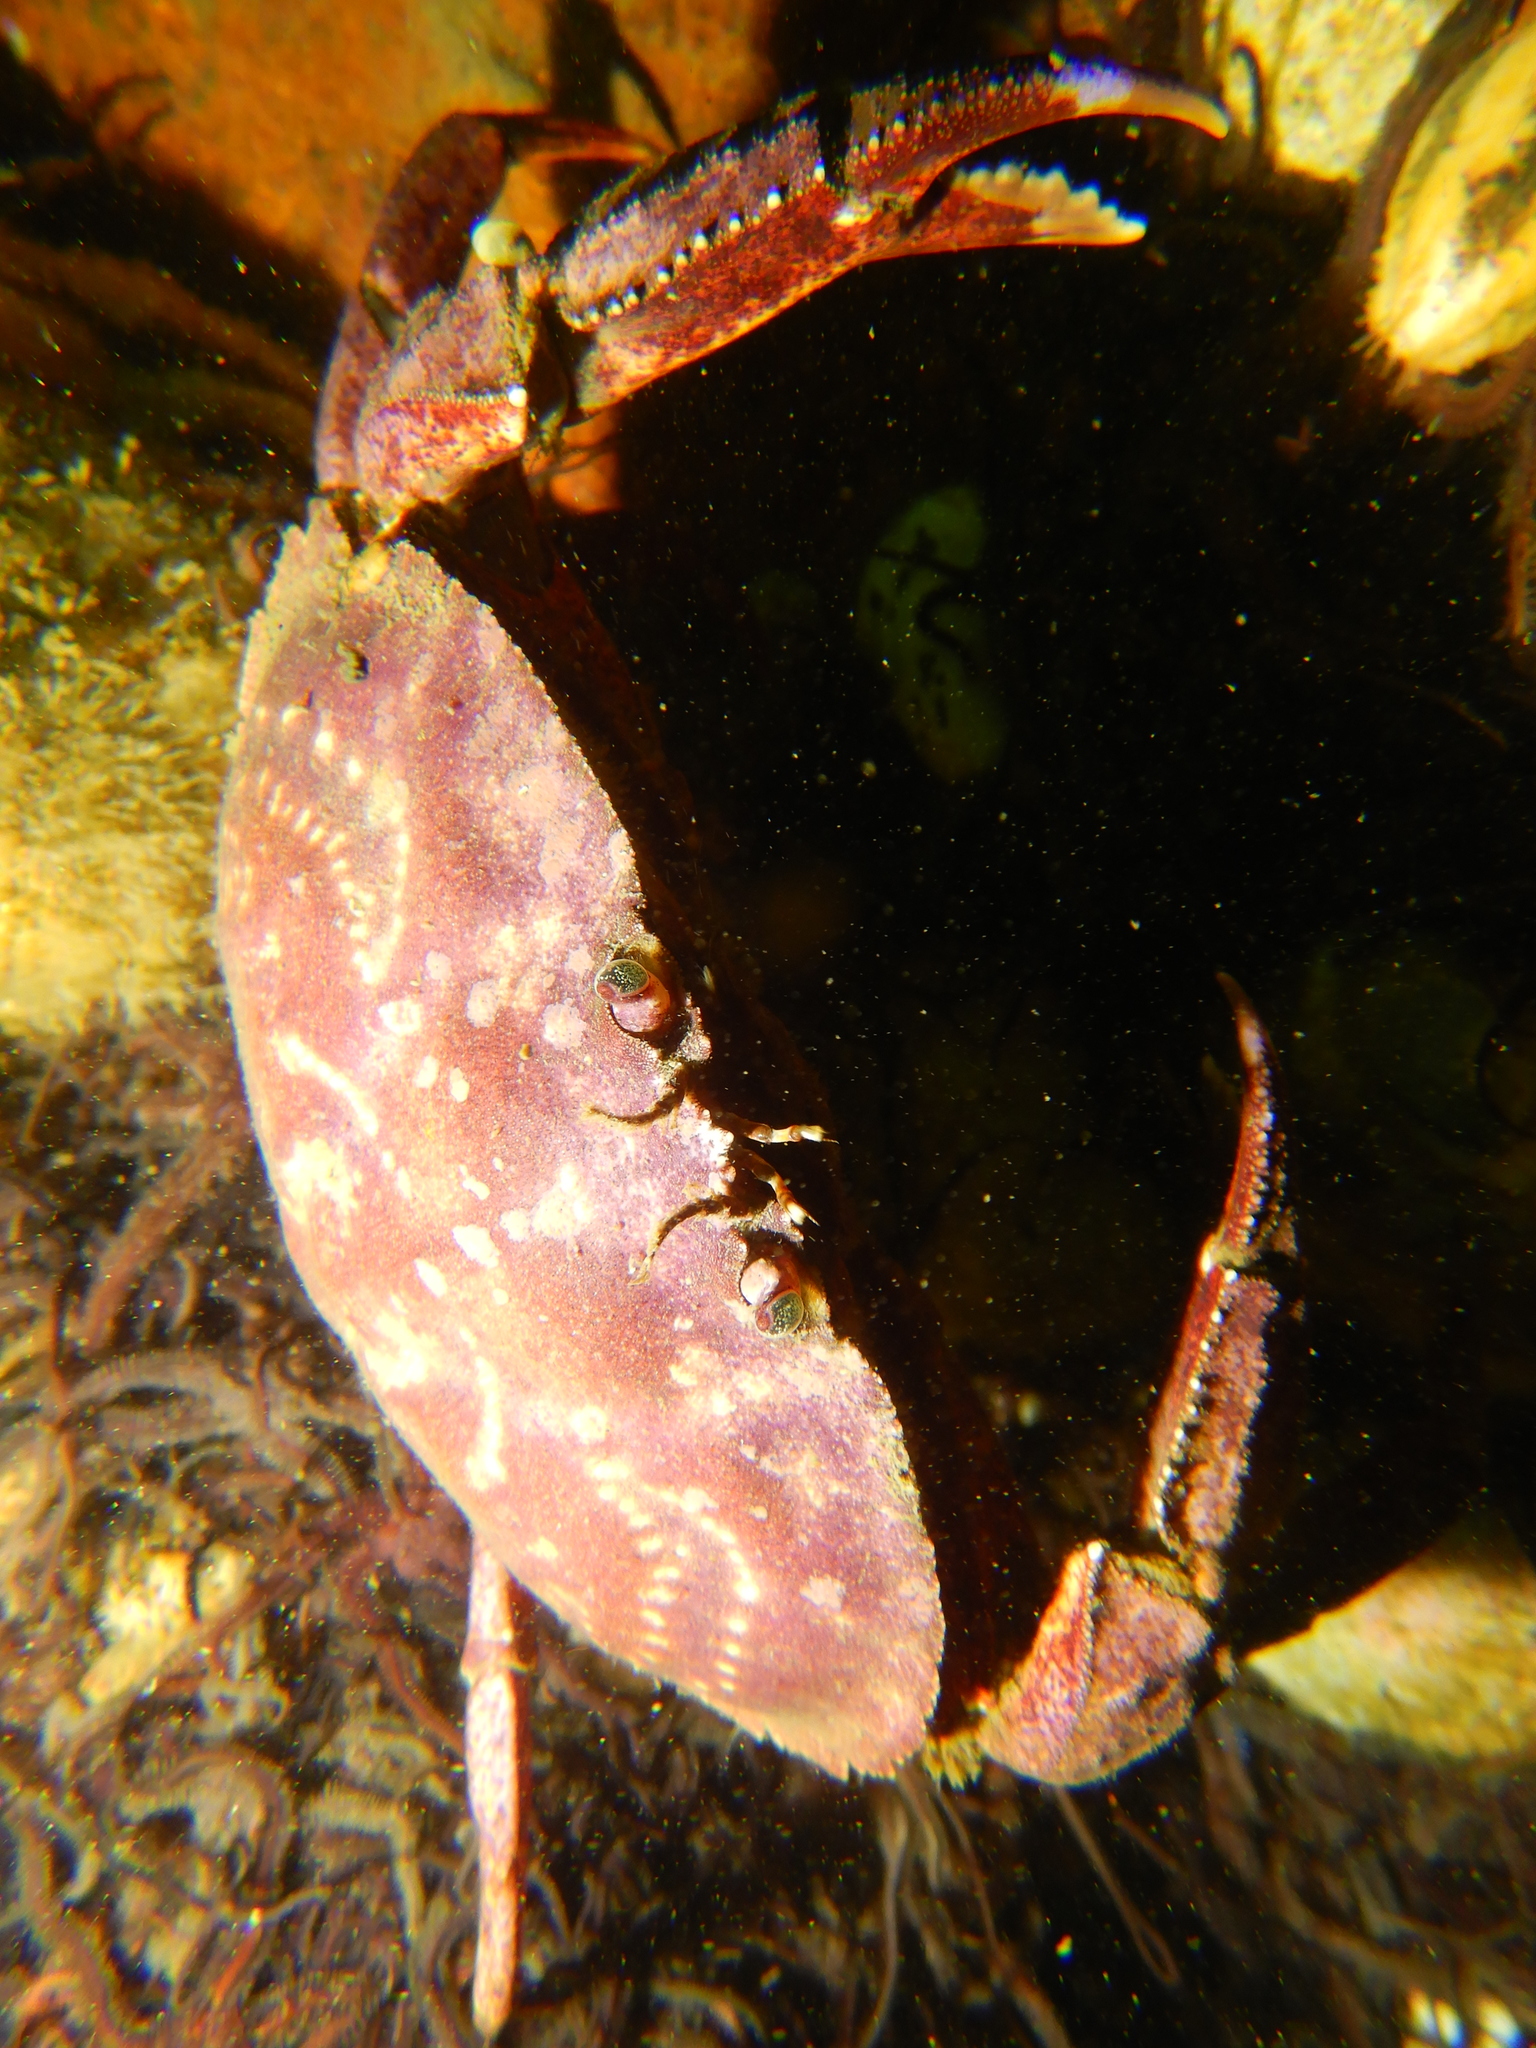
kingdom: Animalia
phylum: Arthropoda
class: Malacostraca
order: Decapoda
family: Cancridae
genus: Cancer
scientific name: Cancer plebejus
